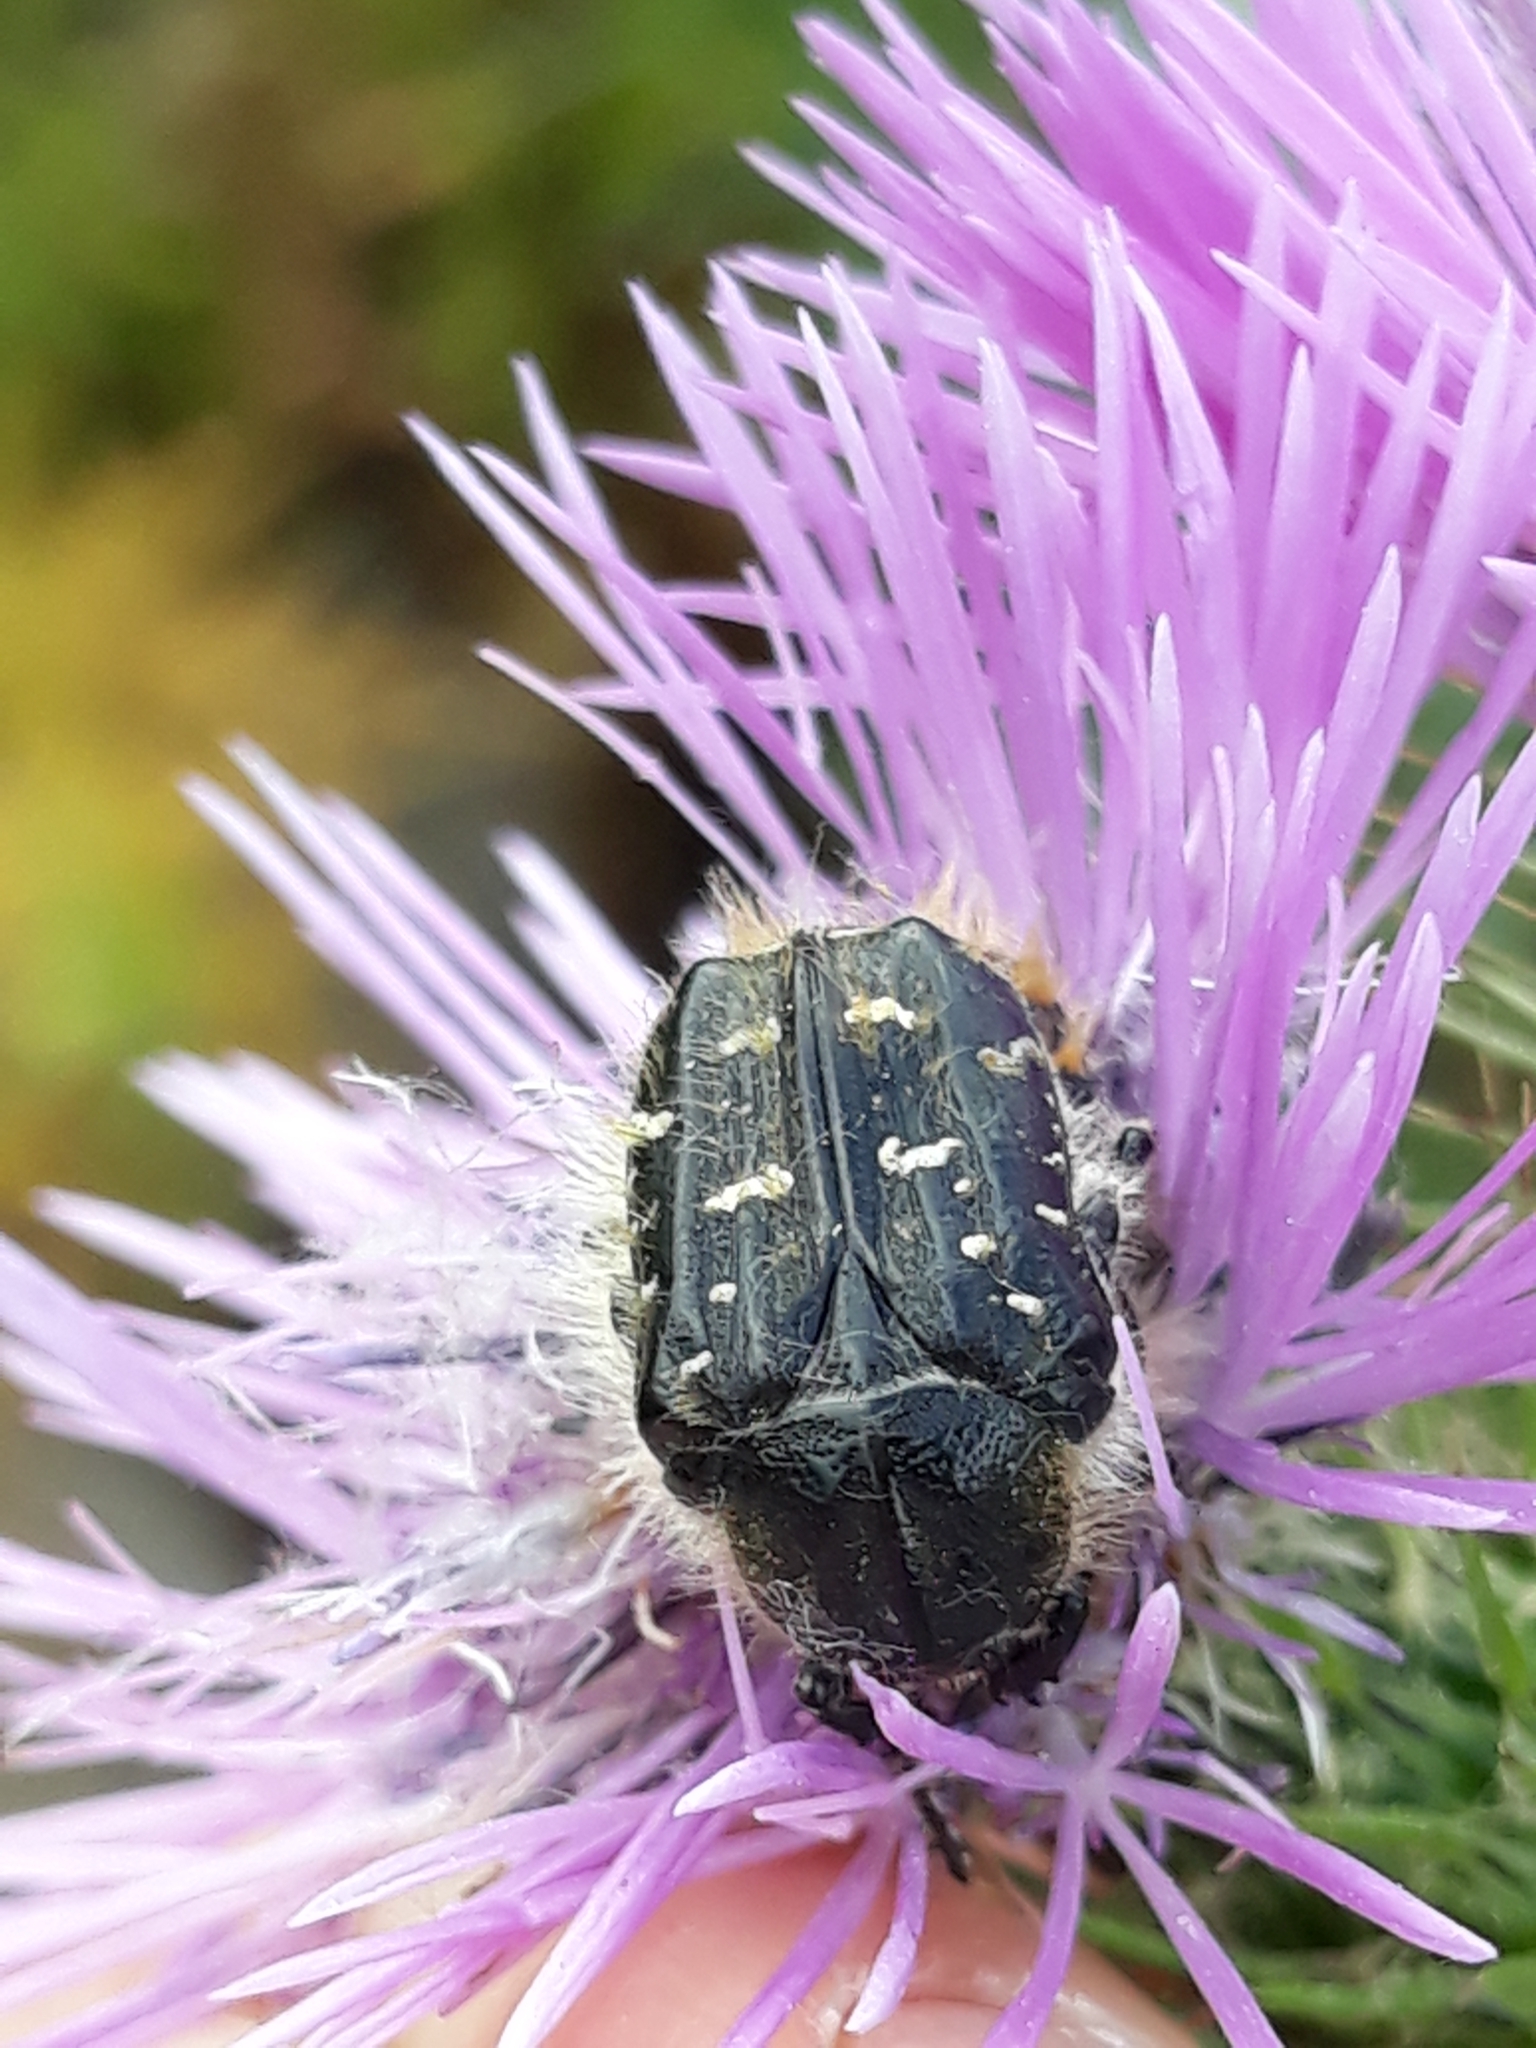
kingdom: Animalia
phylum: Arthropoda
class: Insecta
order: Coleoptera
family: Scarabaeidae
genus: Tropinota
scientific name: Tropinota squalida
